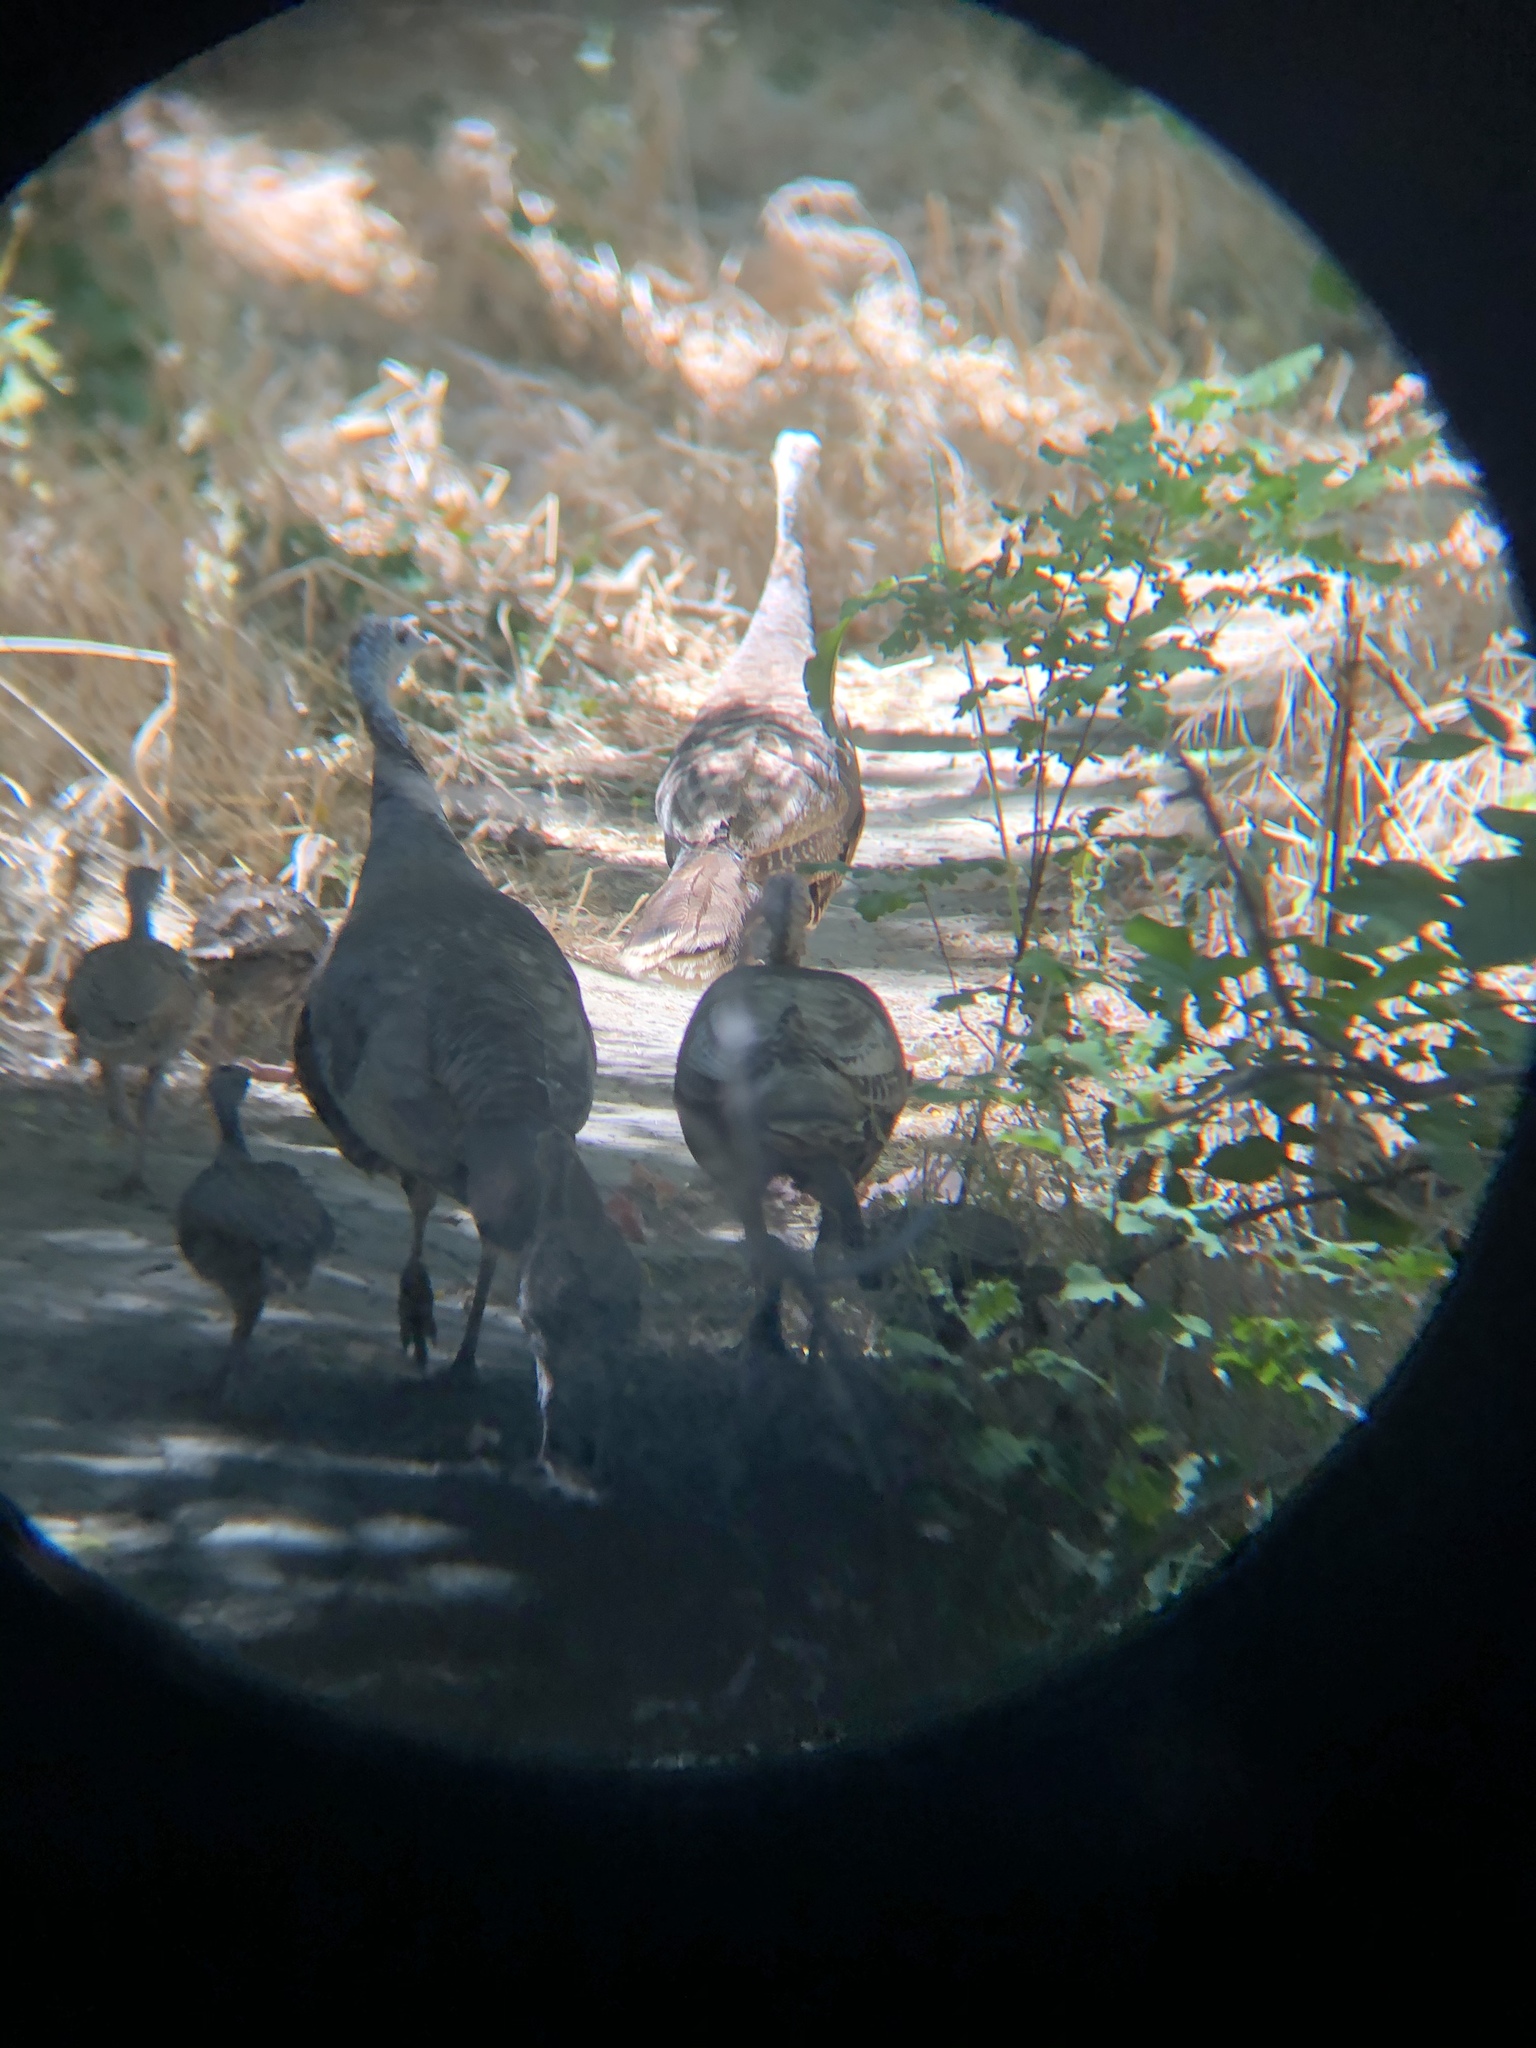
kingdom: Animalia
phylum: Chordata
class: Aves
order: Galliformes
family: Phasianidae
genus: Meleagris
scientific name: Meleagris gallopavo
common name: Wild turkey
